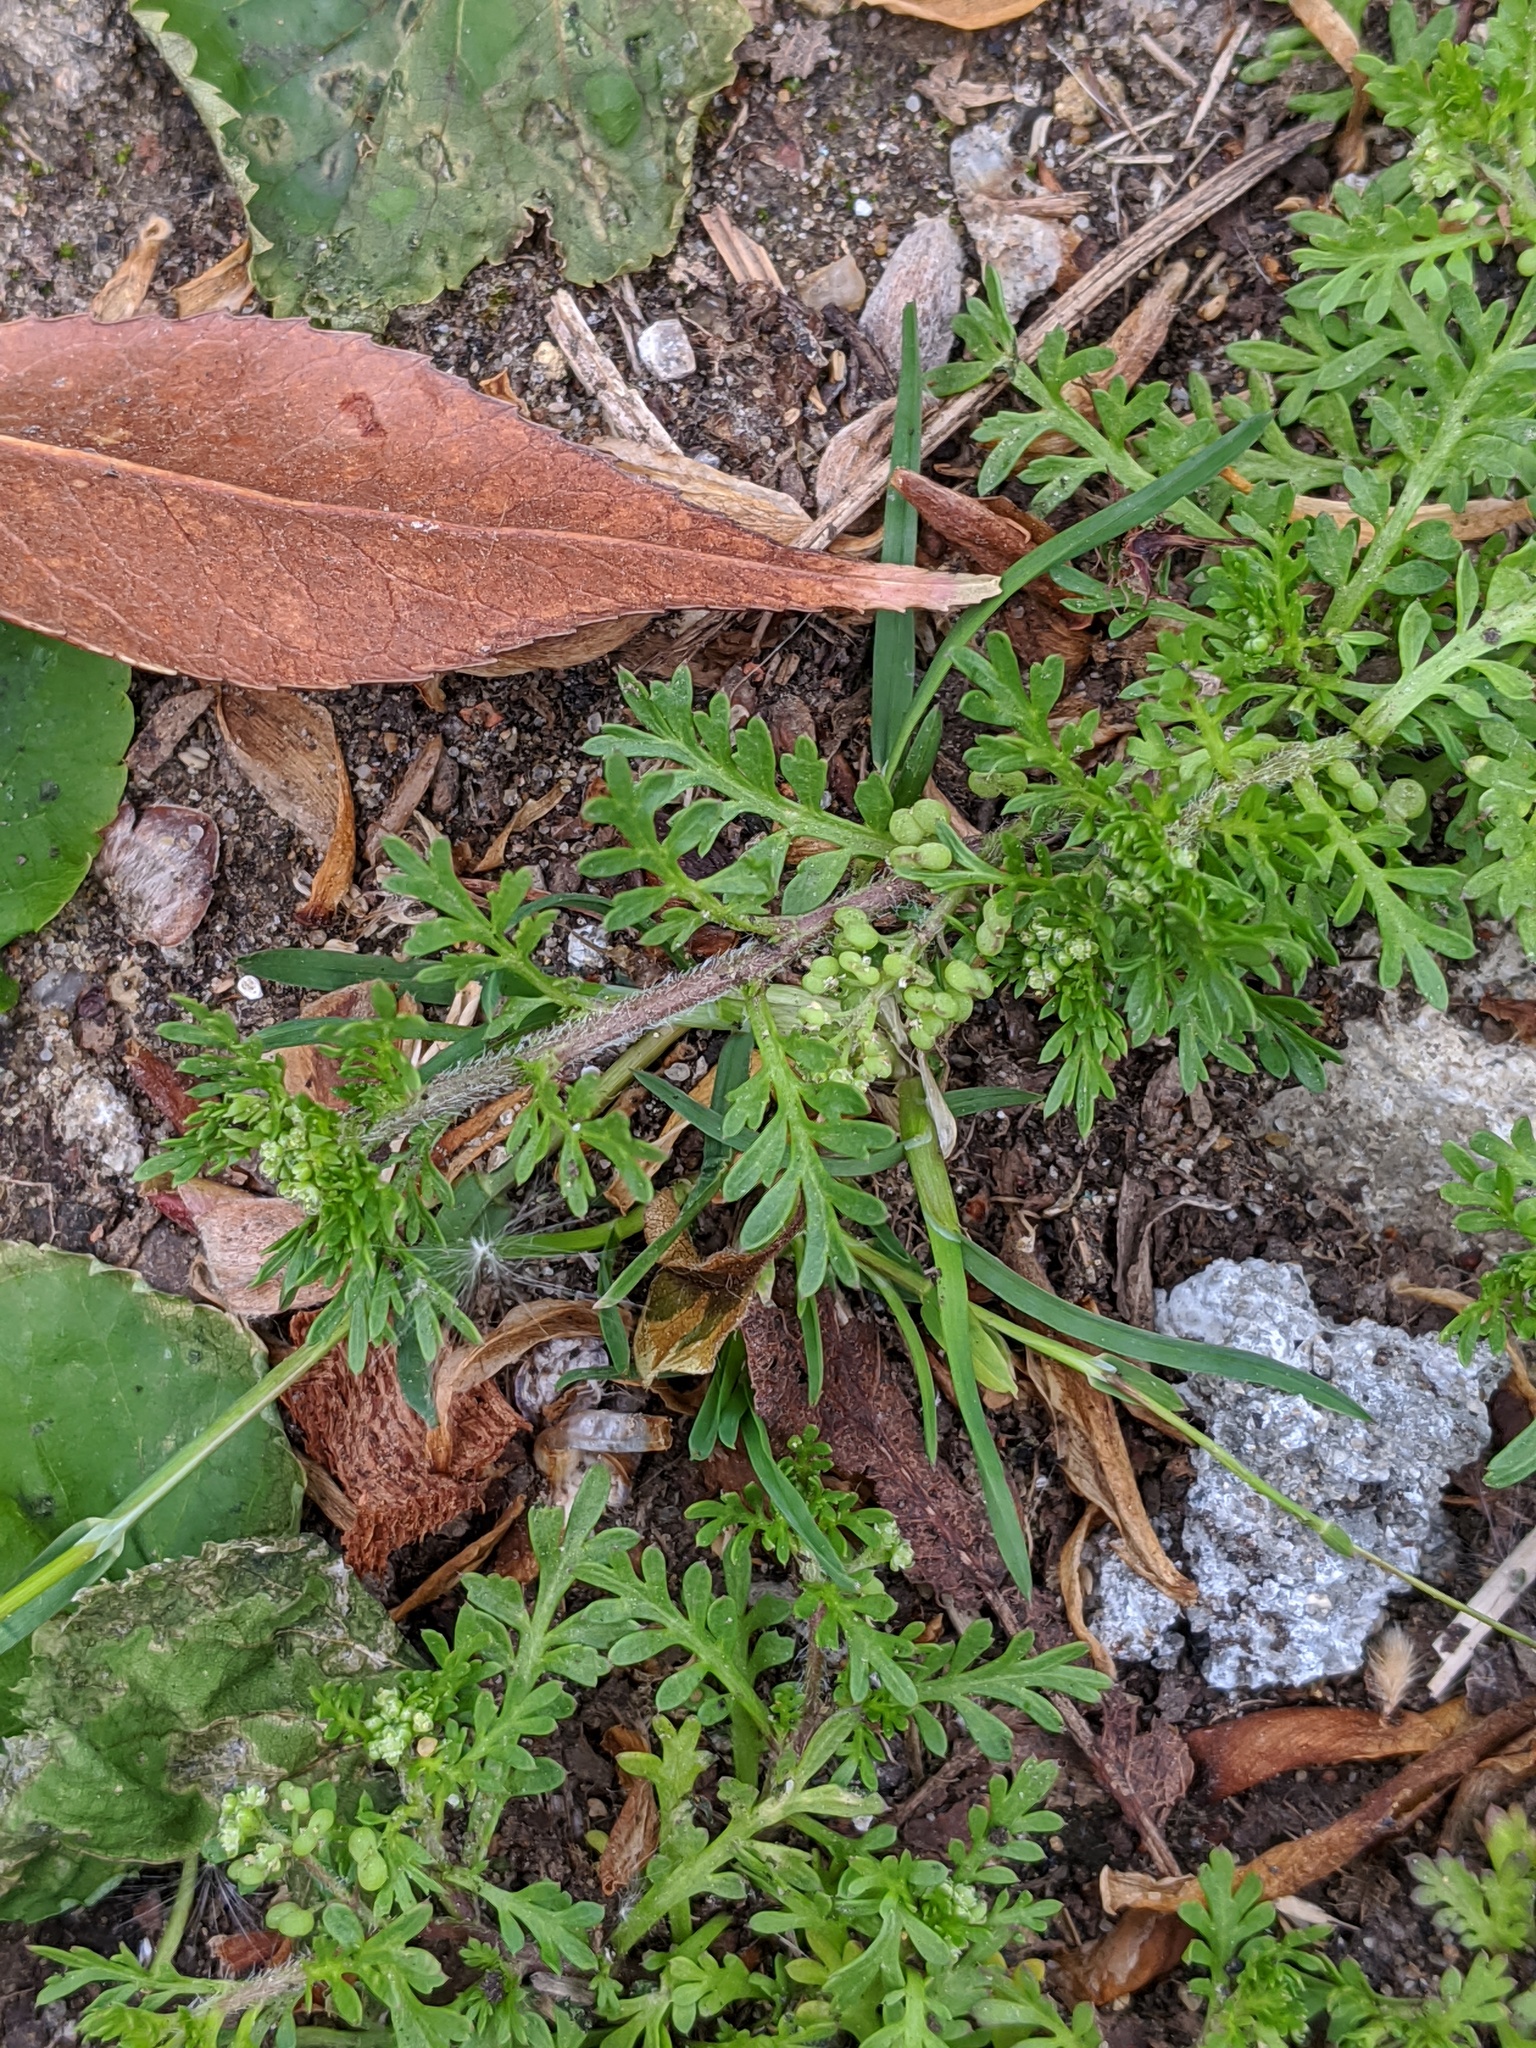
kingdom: Plantae
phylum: Tracheophyta
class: Magnoliopsida
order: Brassicales
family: Brassicaceae
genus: Lepidium
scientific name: Lepidium didymum
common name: Lesser swinecress
